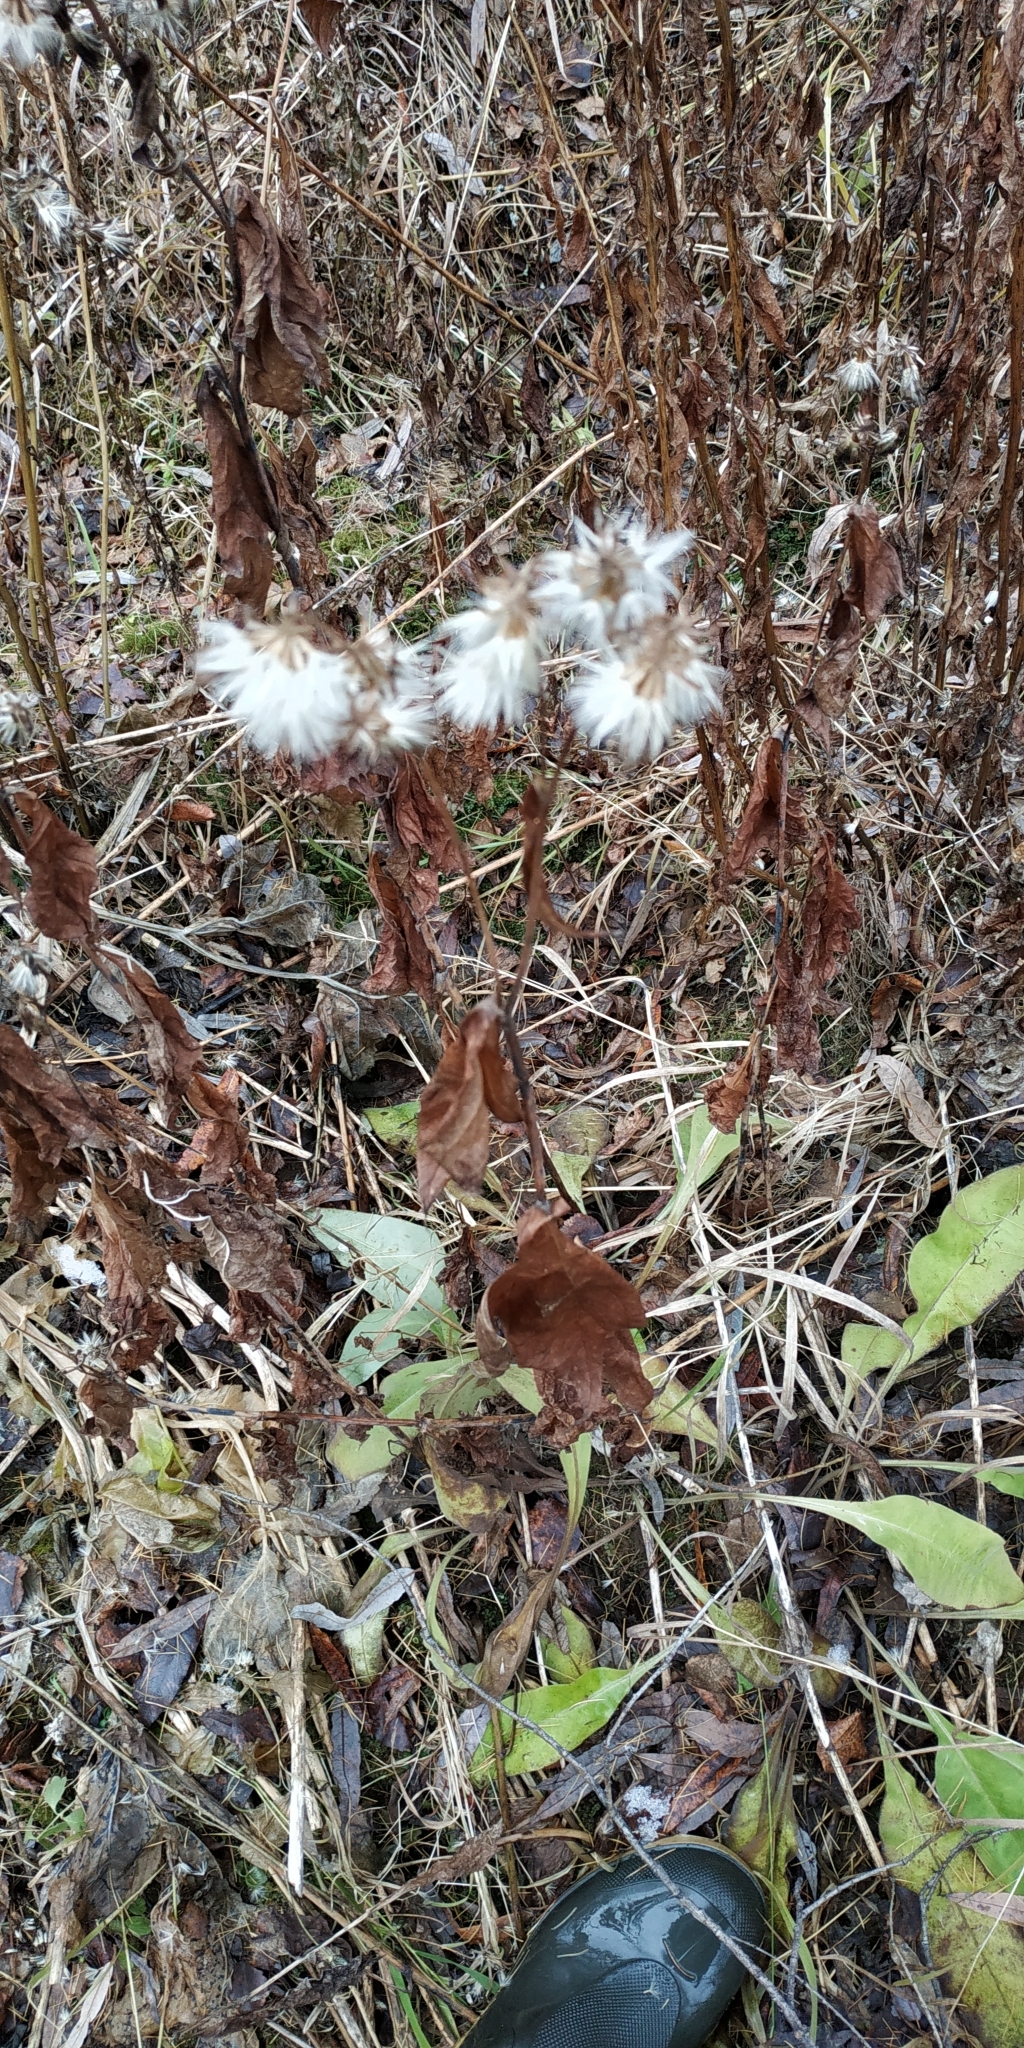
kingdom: Plantae
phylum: Tracheophyta
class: Magnoliopsida
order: Asterales
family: Asteraceae
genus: Parasenecio
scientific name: Parasenecio hastatus
